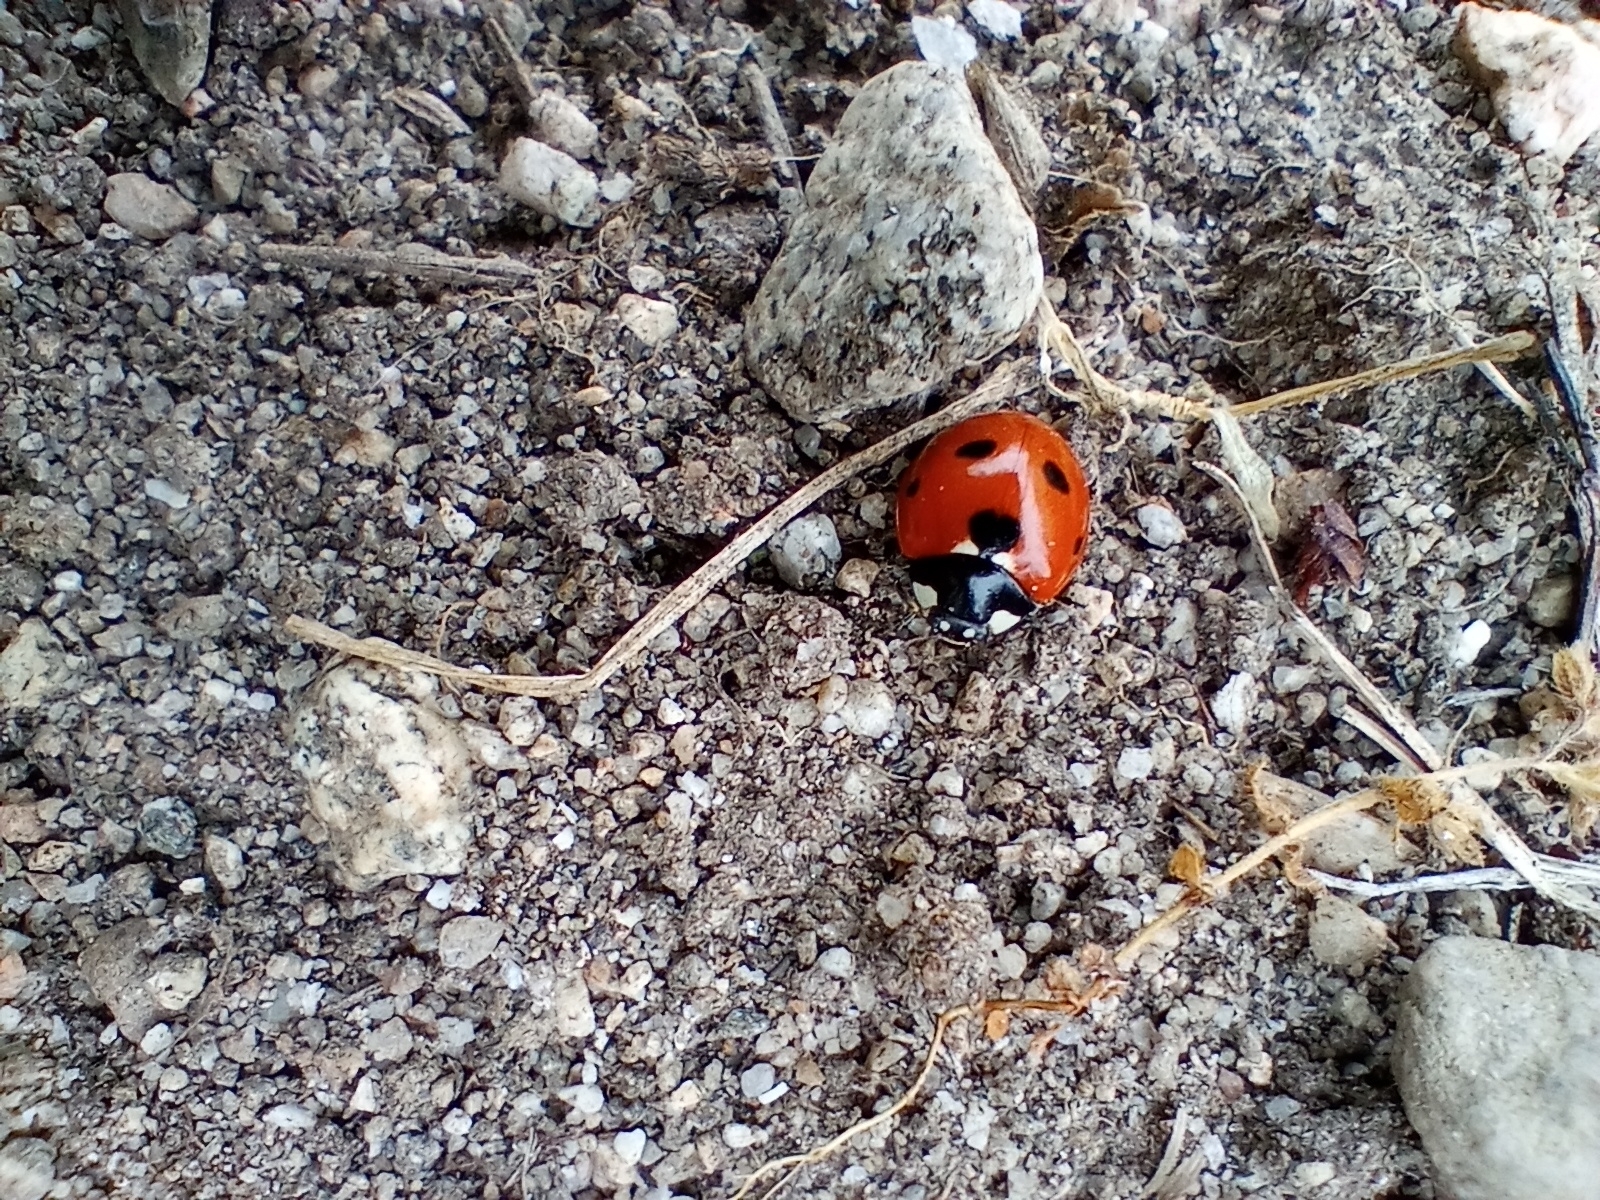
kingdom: Animalia
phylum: Arthropoda
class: Insecta
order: Coleoptera
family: Coccinellidae
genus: Coccinella
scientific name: Coccinella septempunctata
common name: Sevenspotted lady beetle
